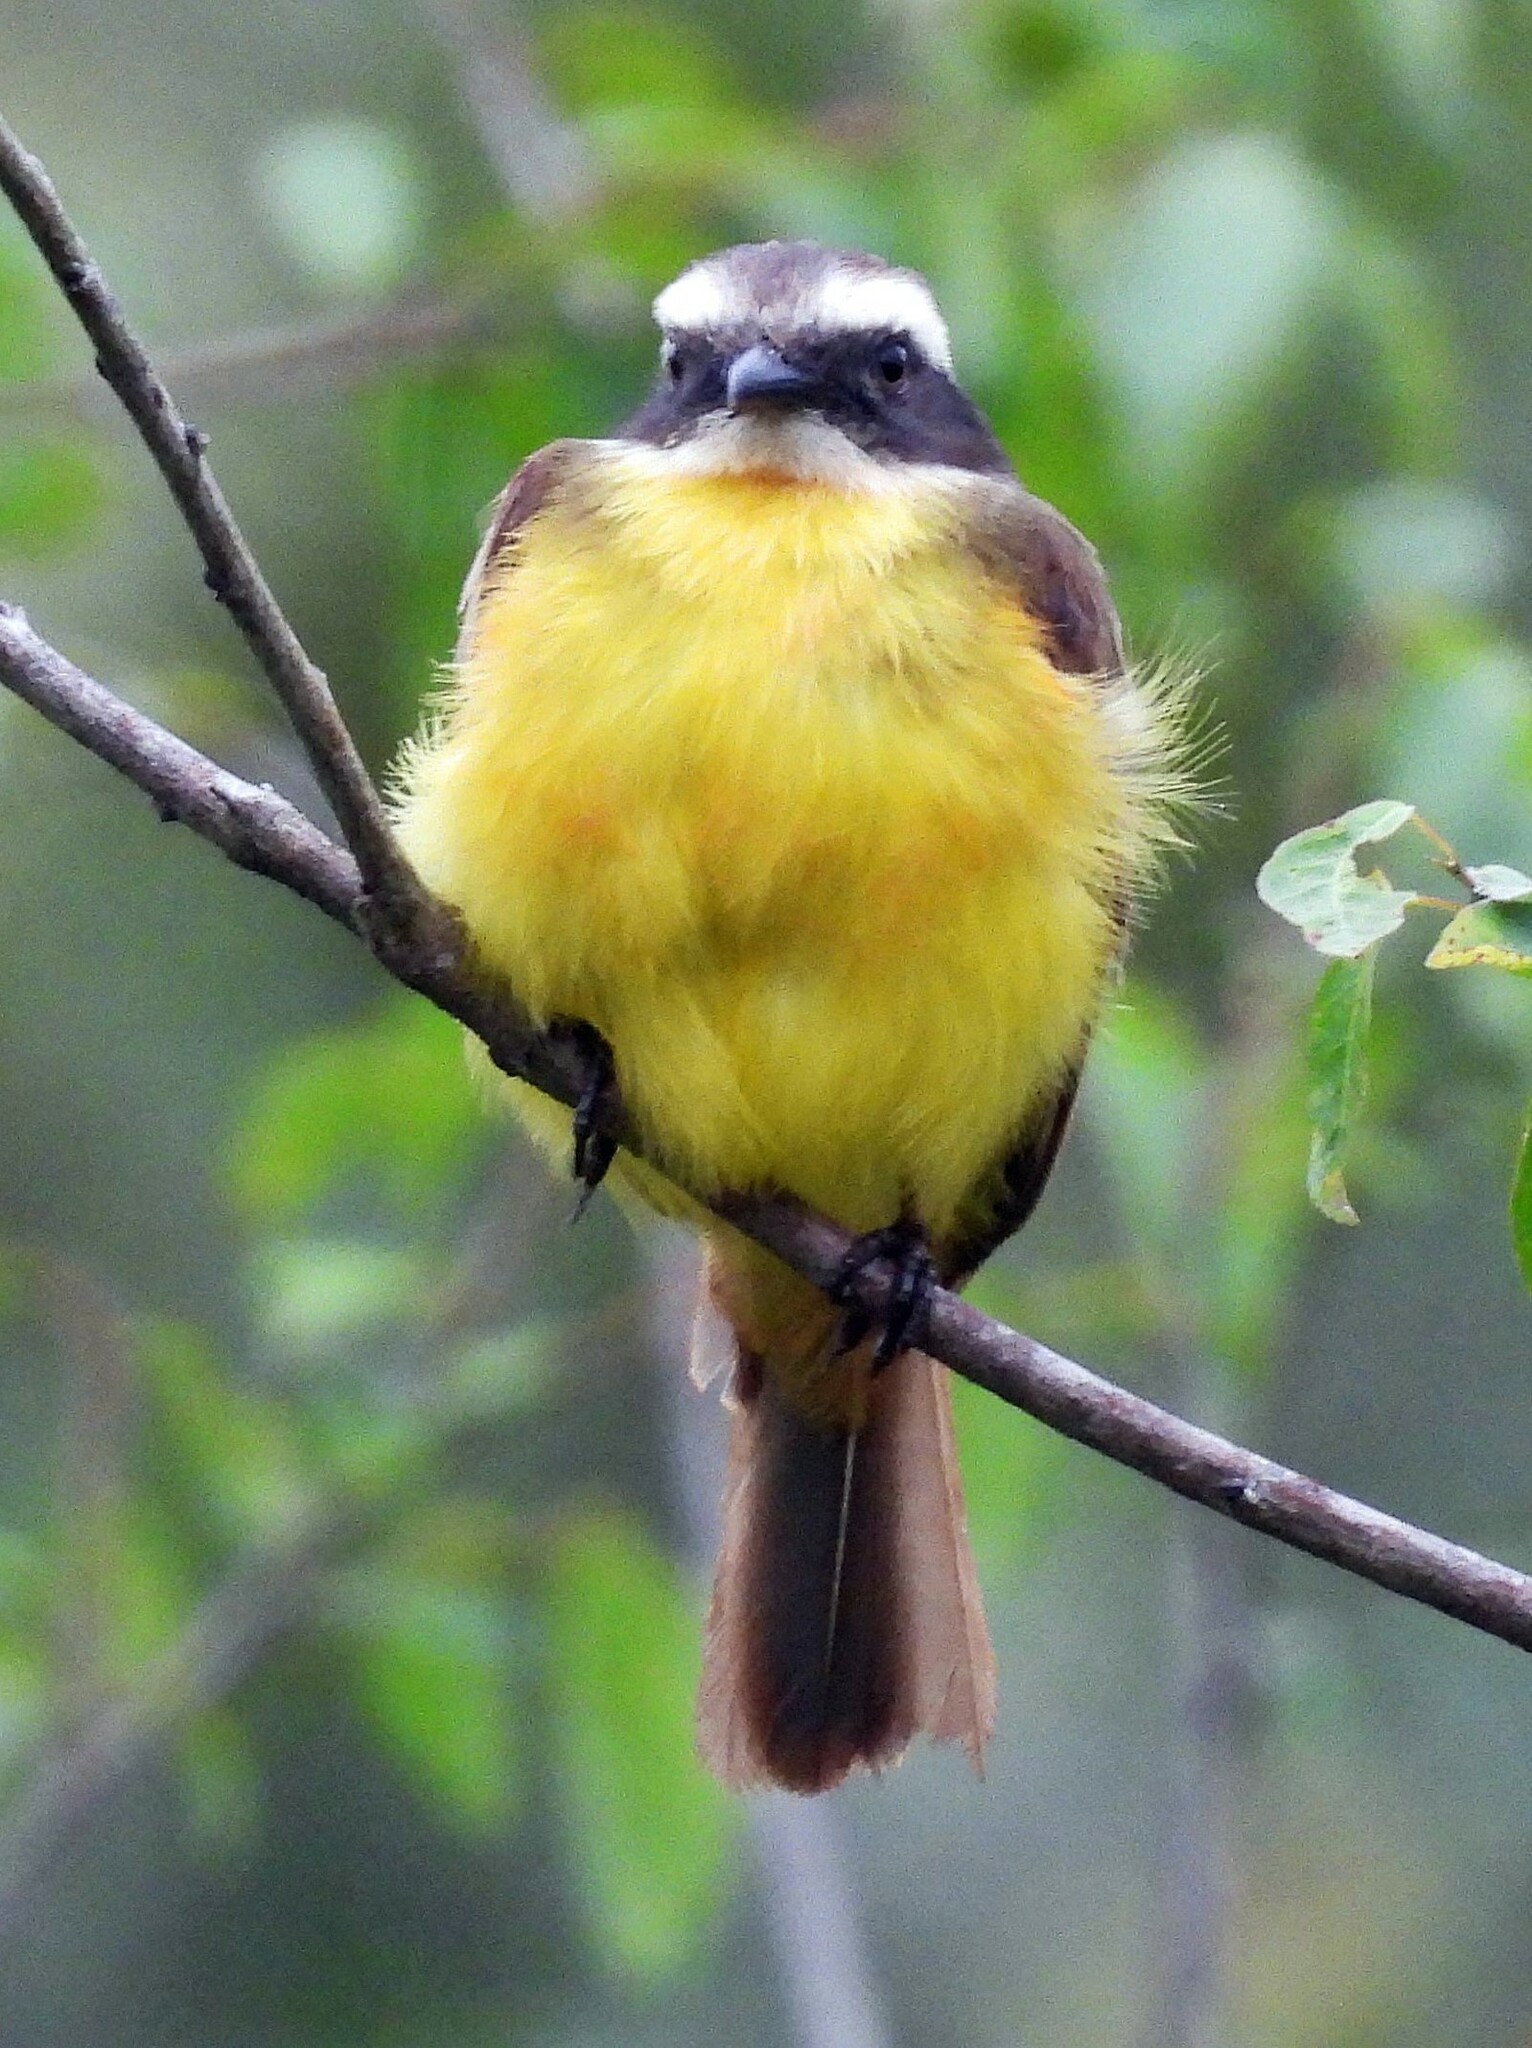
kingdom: Animalia
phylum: Chordata
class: Aves
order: Passeriformes
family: Tyrannidae
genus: Myiozetetes
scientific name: Myiozetetes similis
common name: Social flycatcher
